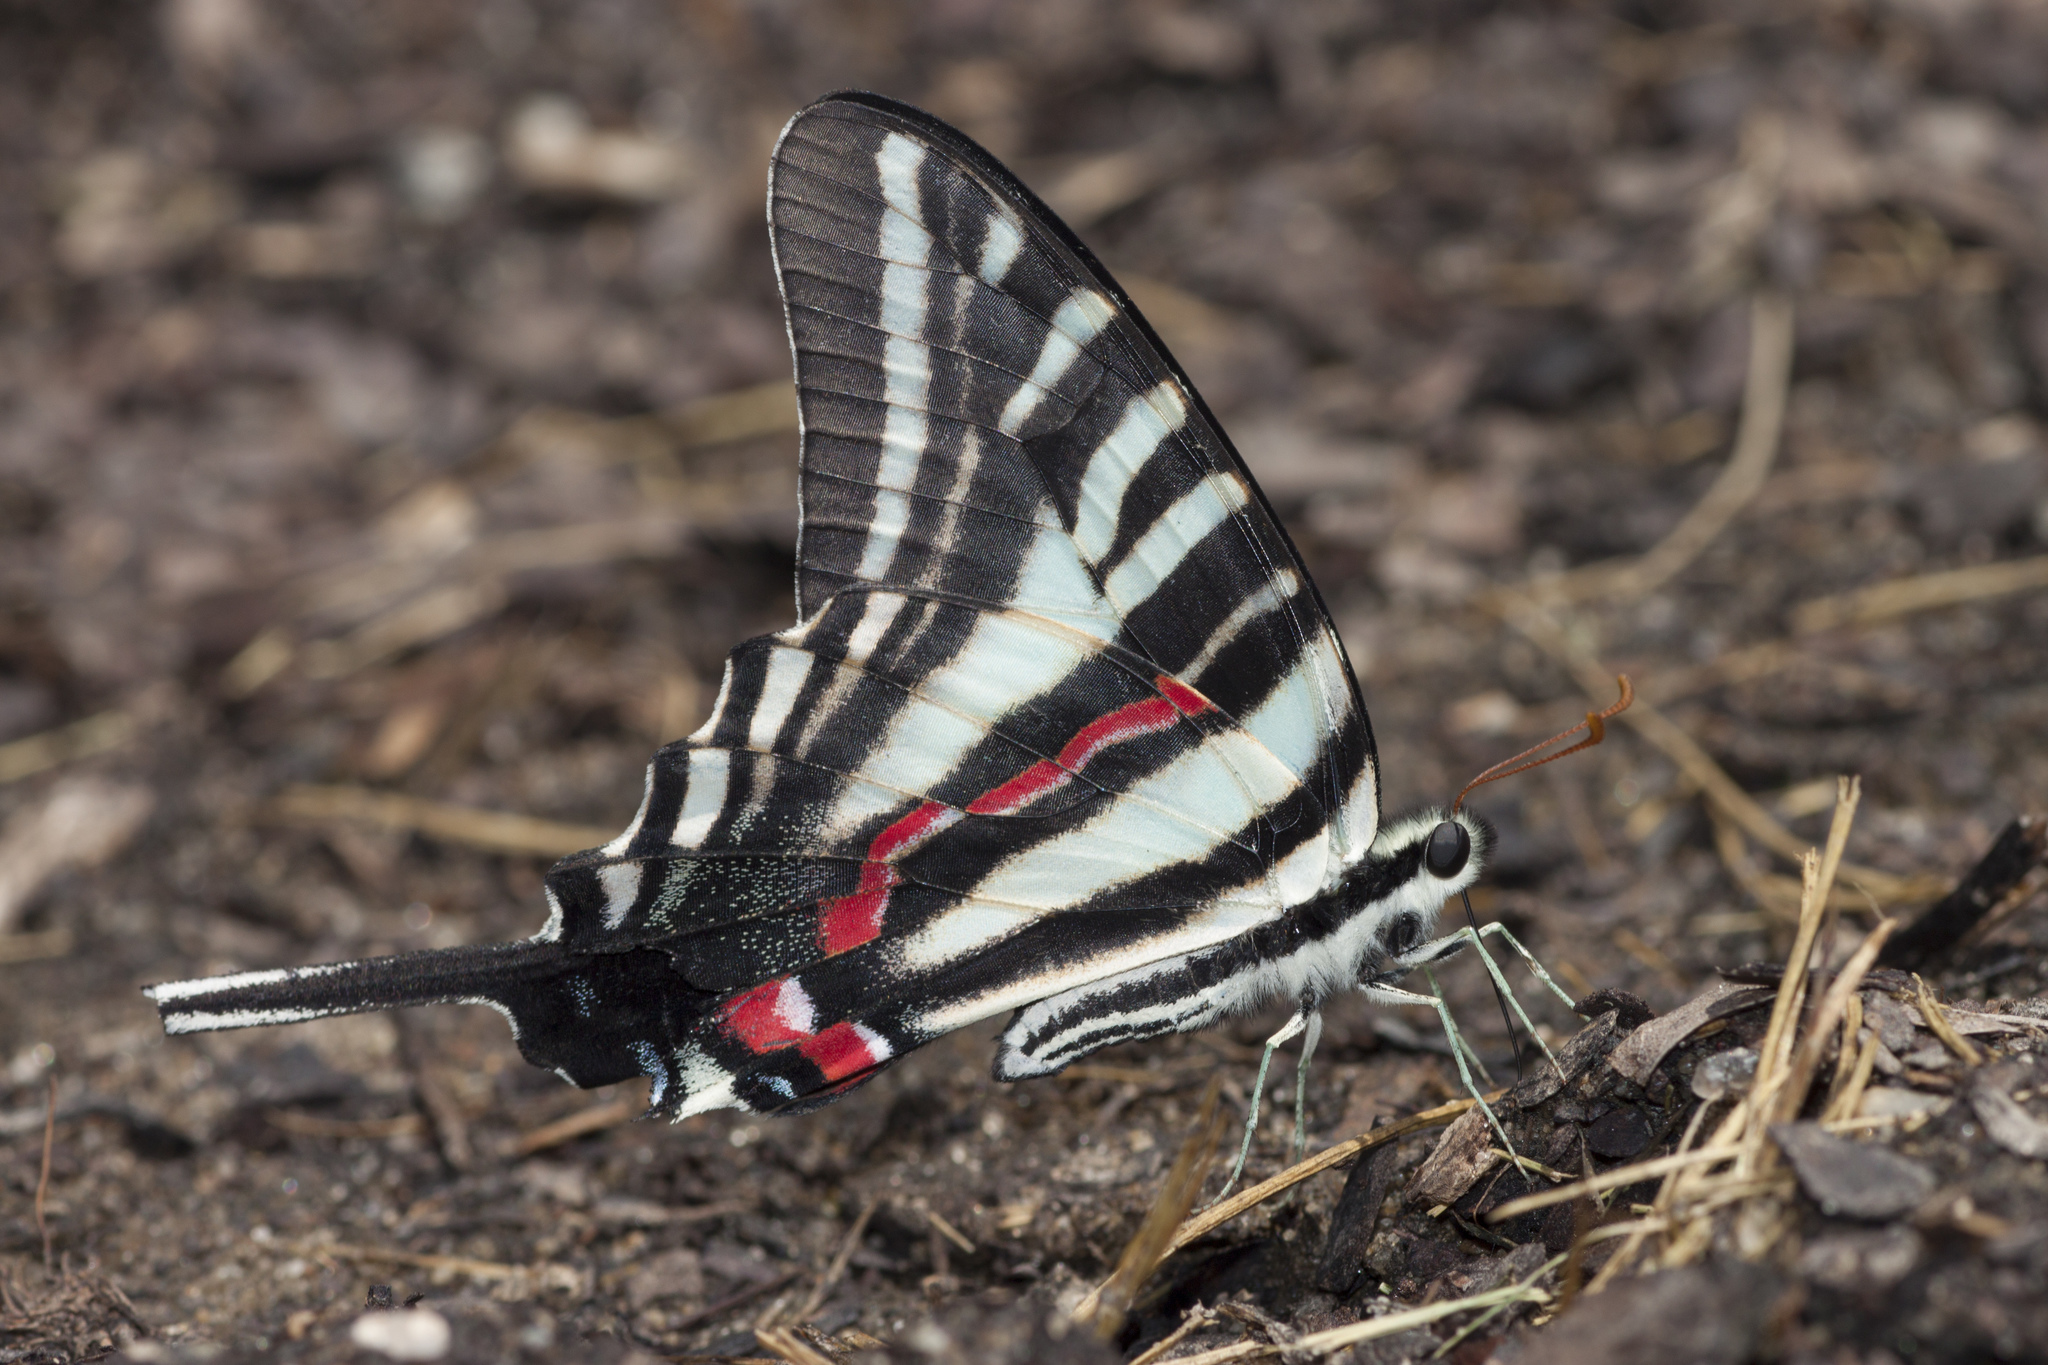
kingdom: Animalia
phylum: Arthropoda
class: Insecta
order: Lepidoptera
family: Papilionidae
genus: Protographium
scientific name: Protographium marcellus
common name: Zebra swallowtail
